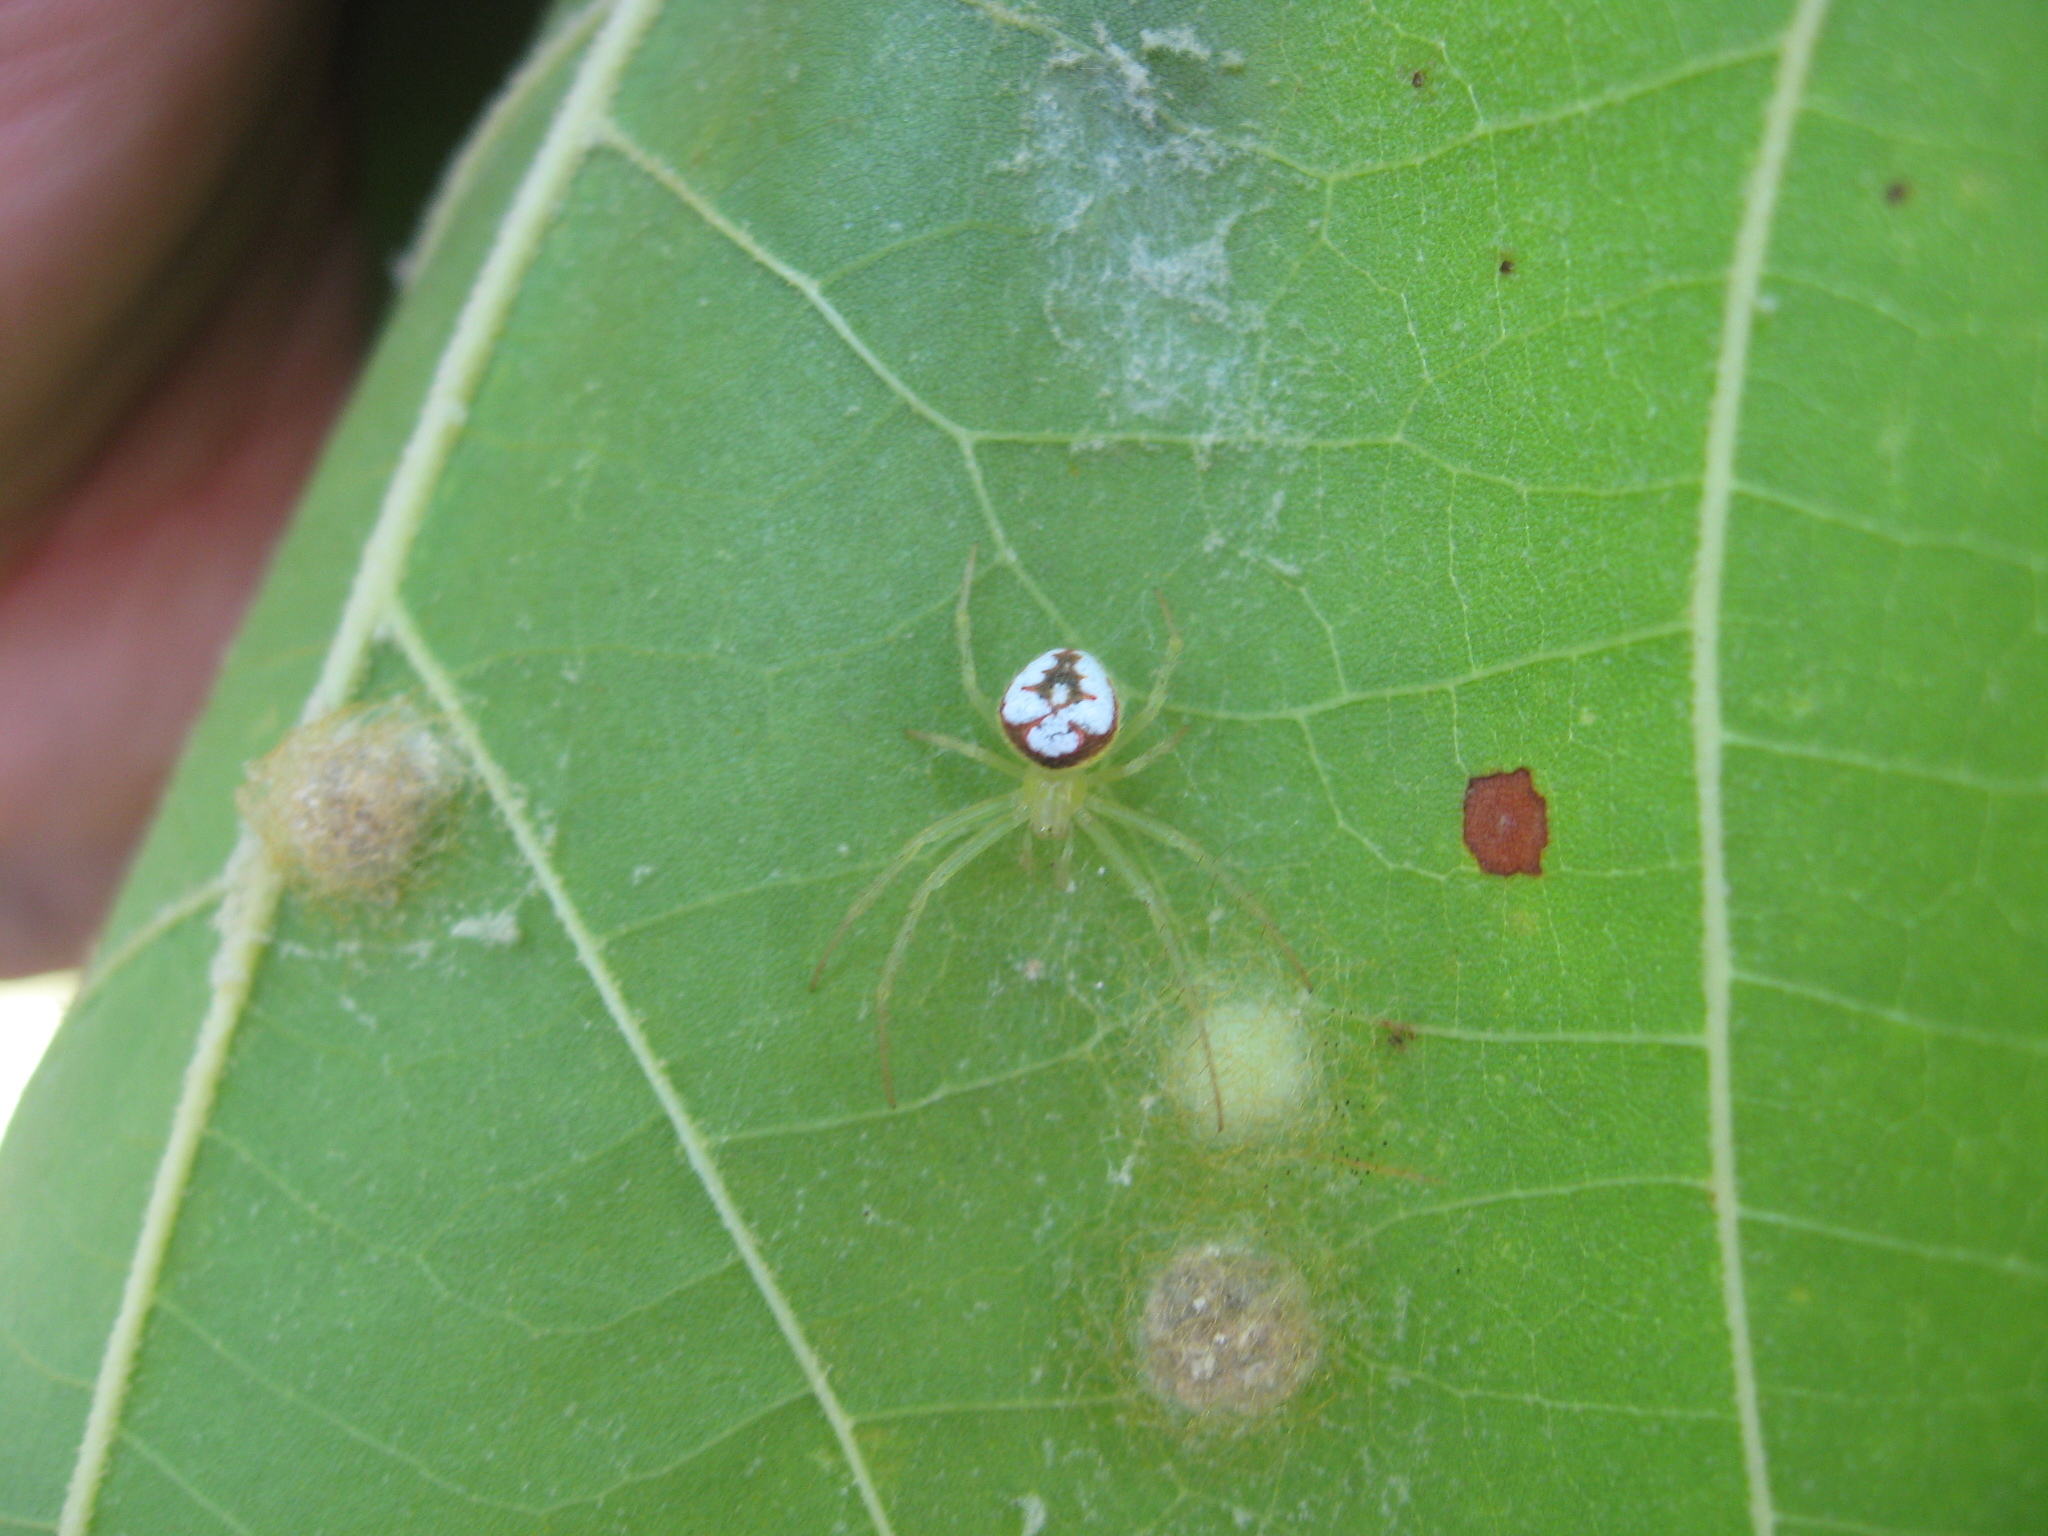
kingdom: Animalia
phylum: Arthropoda
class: Arachnida
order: Araneae
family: Araneidae
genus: Araneus
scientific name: Araneus guttulatus
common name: Red-backed orbweaver
